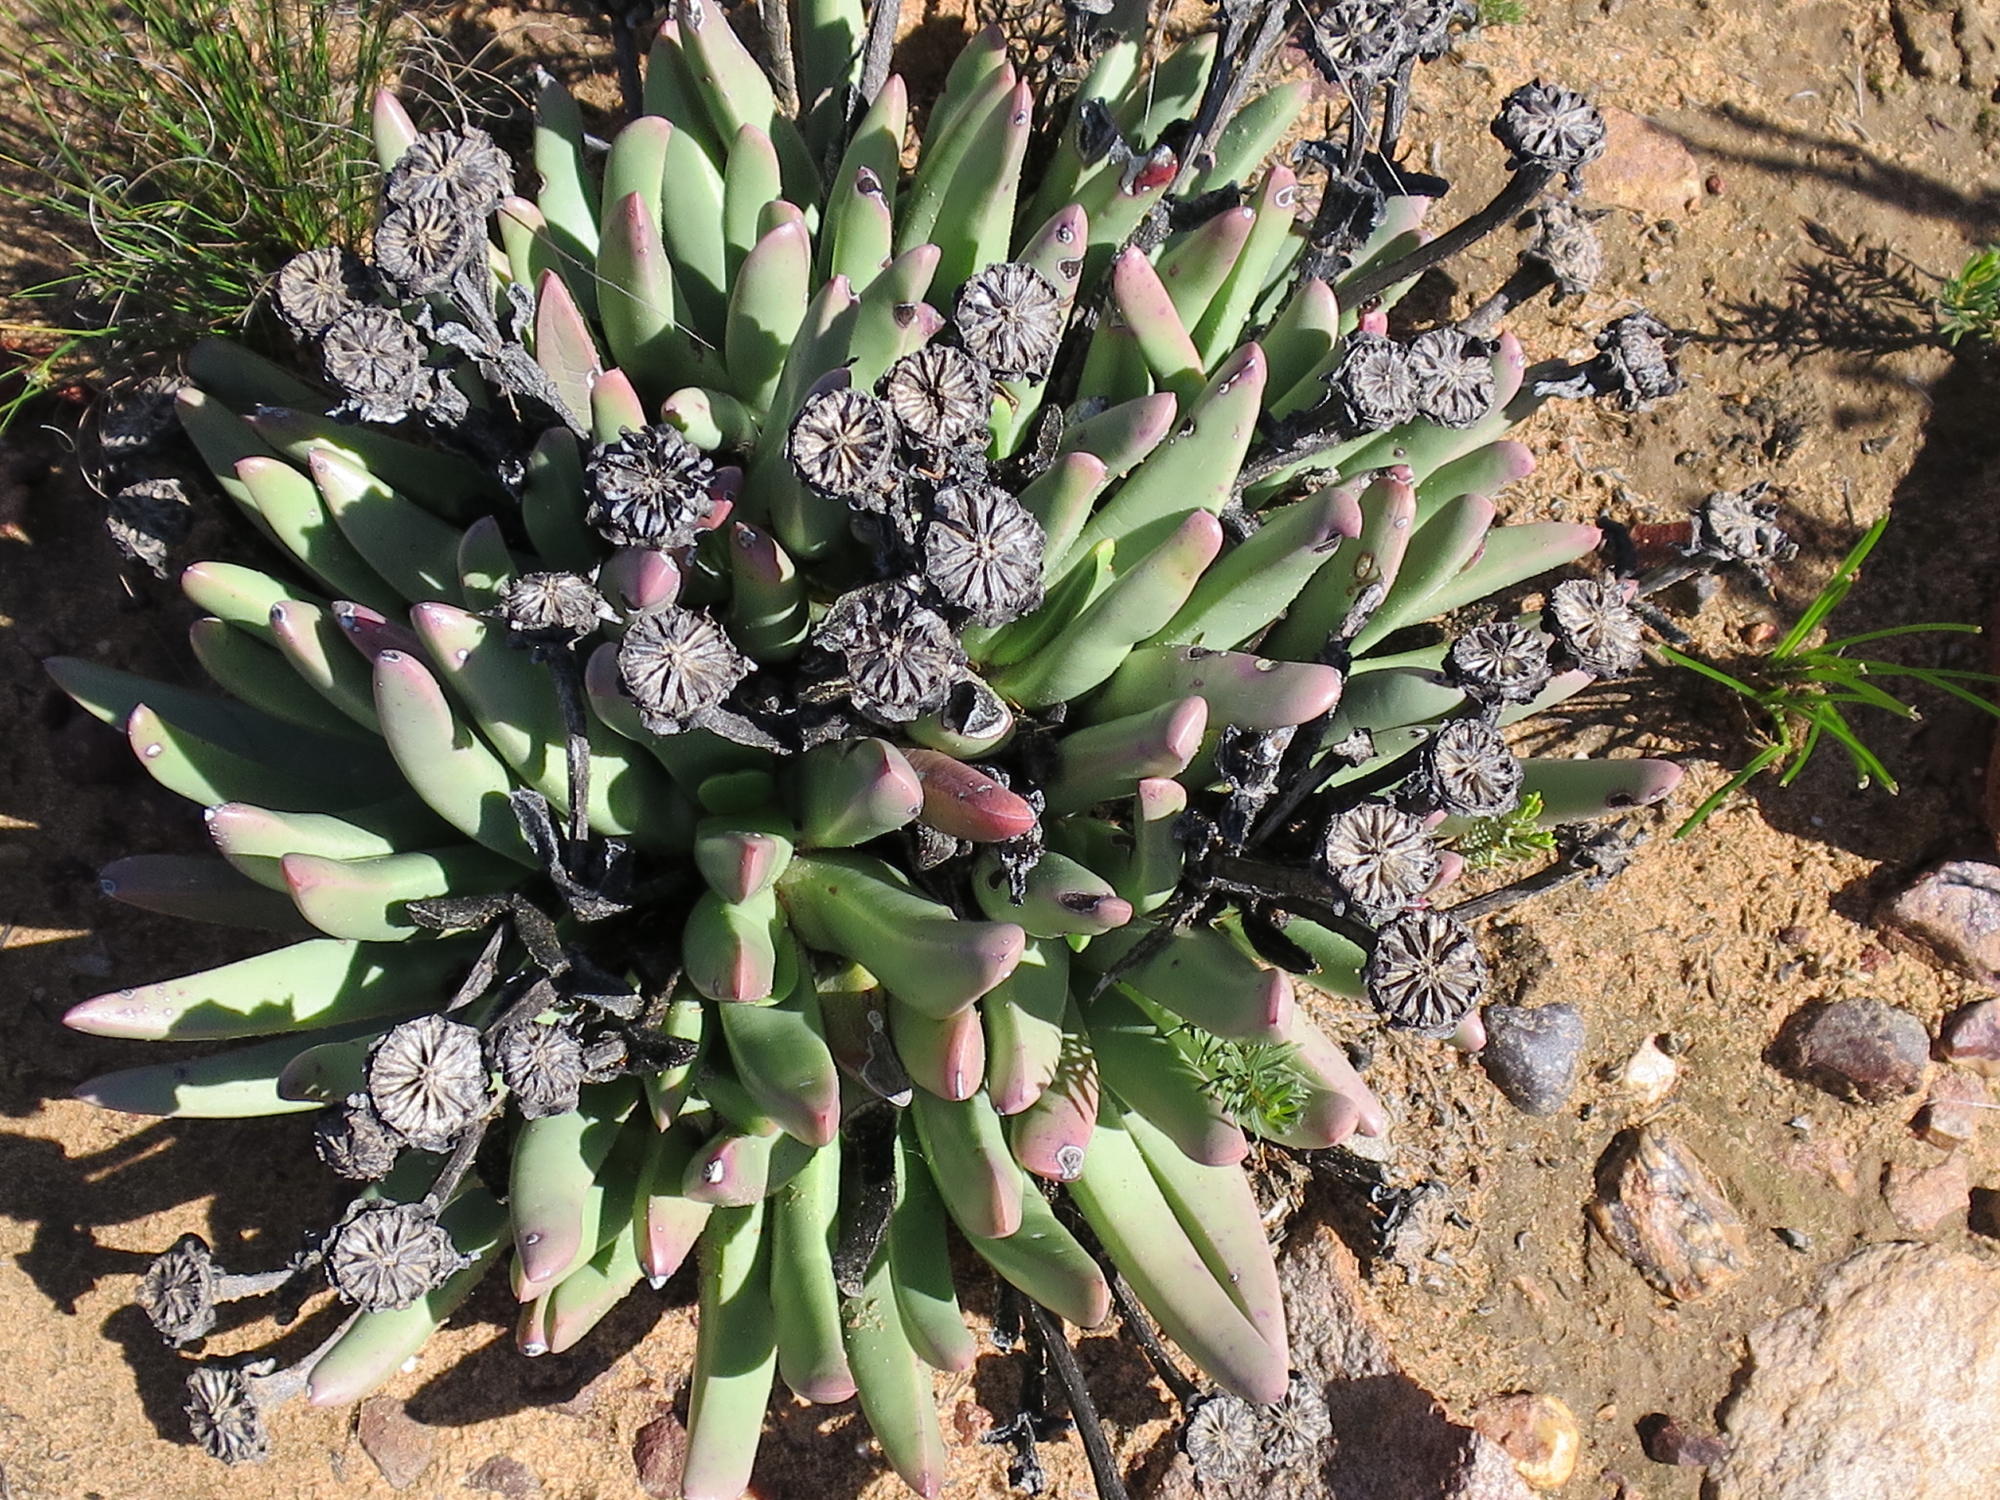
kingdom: Plantae
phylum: Tracheophyta
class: Magnoliopsida
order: Caryophyllales
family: Aizoaceae
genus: Machairophyllum
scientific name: Machairophyllum albidum
